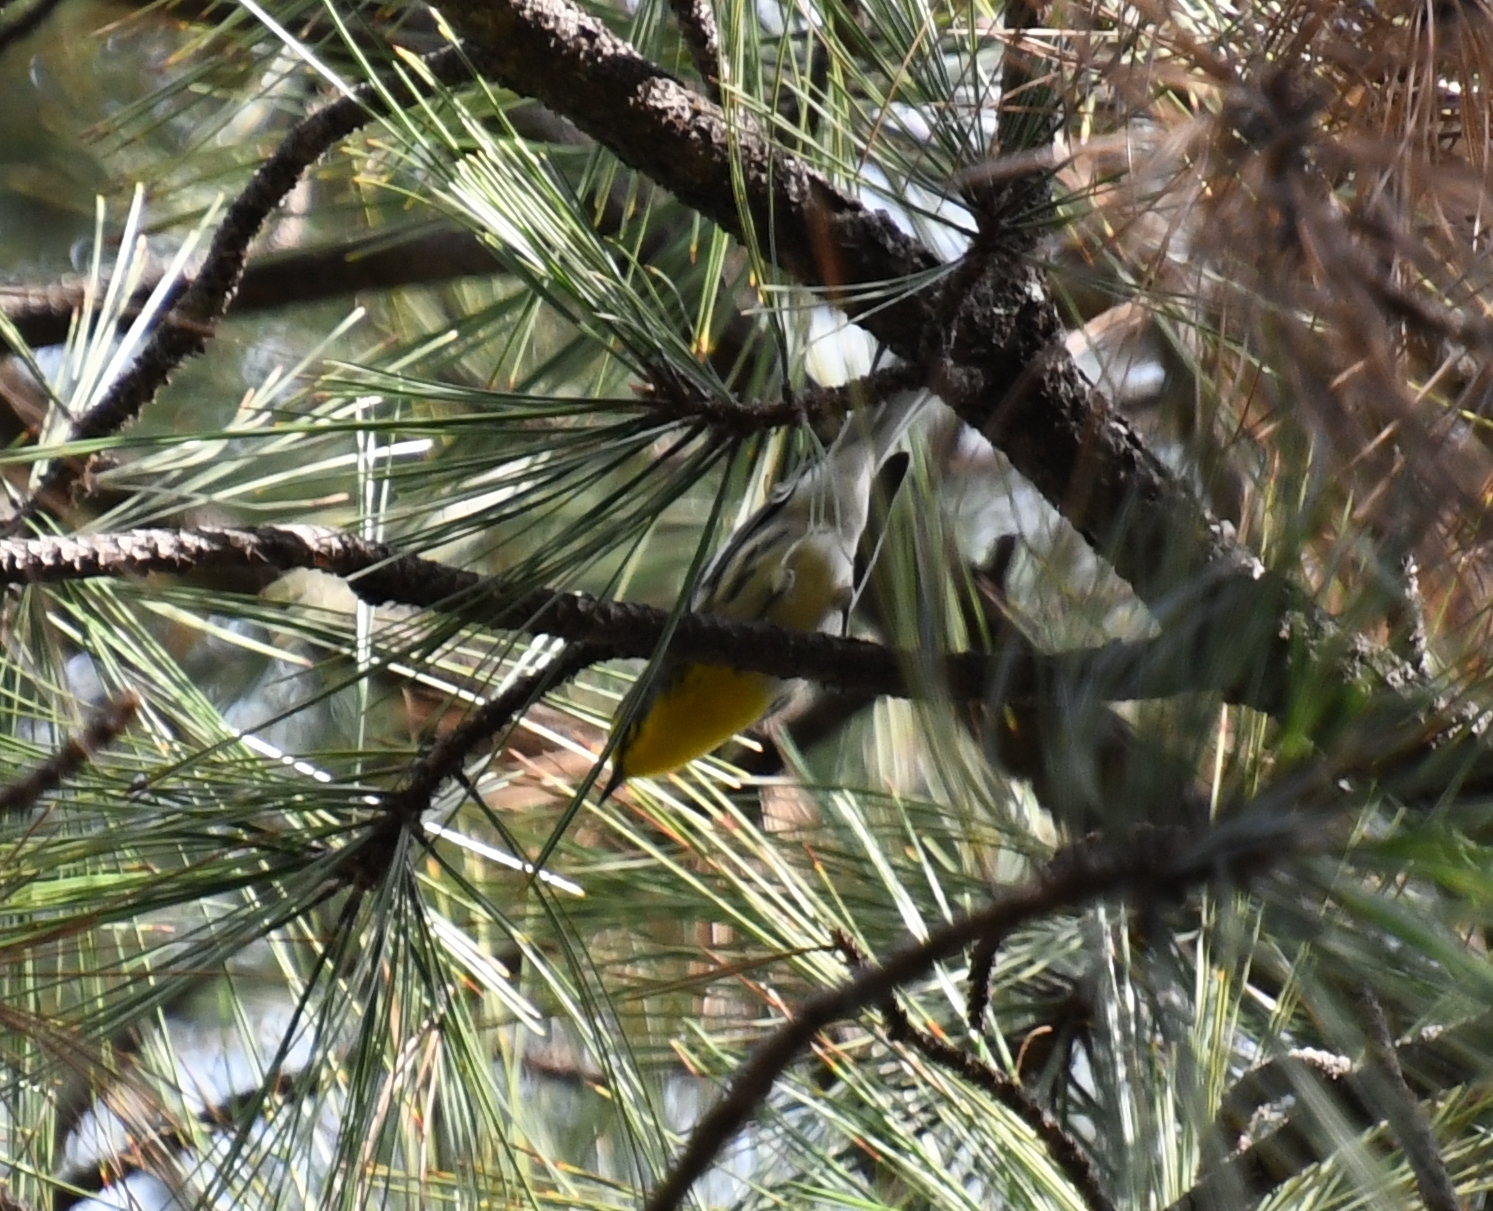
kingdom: Animalia
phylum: Chordata
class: Aves
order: Passeriformes
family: Parulidae
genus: Setophaga
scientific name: Setophaga graciae
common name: Grace's warbler
